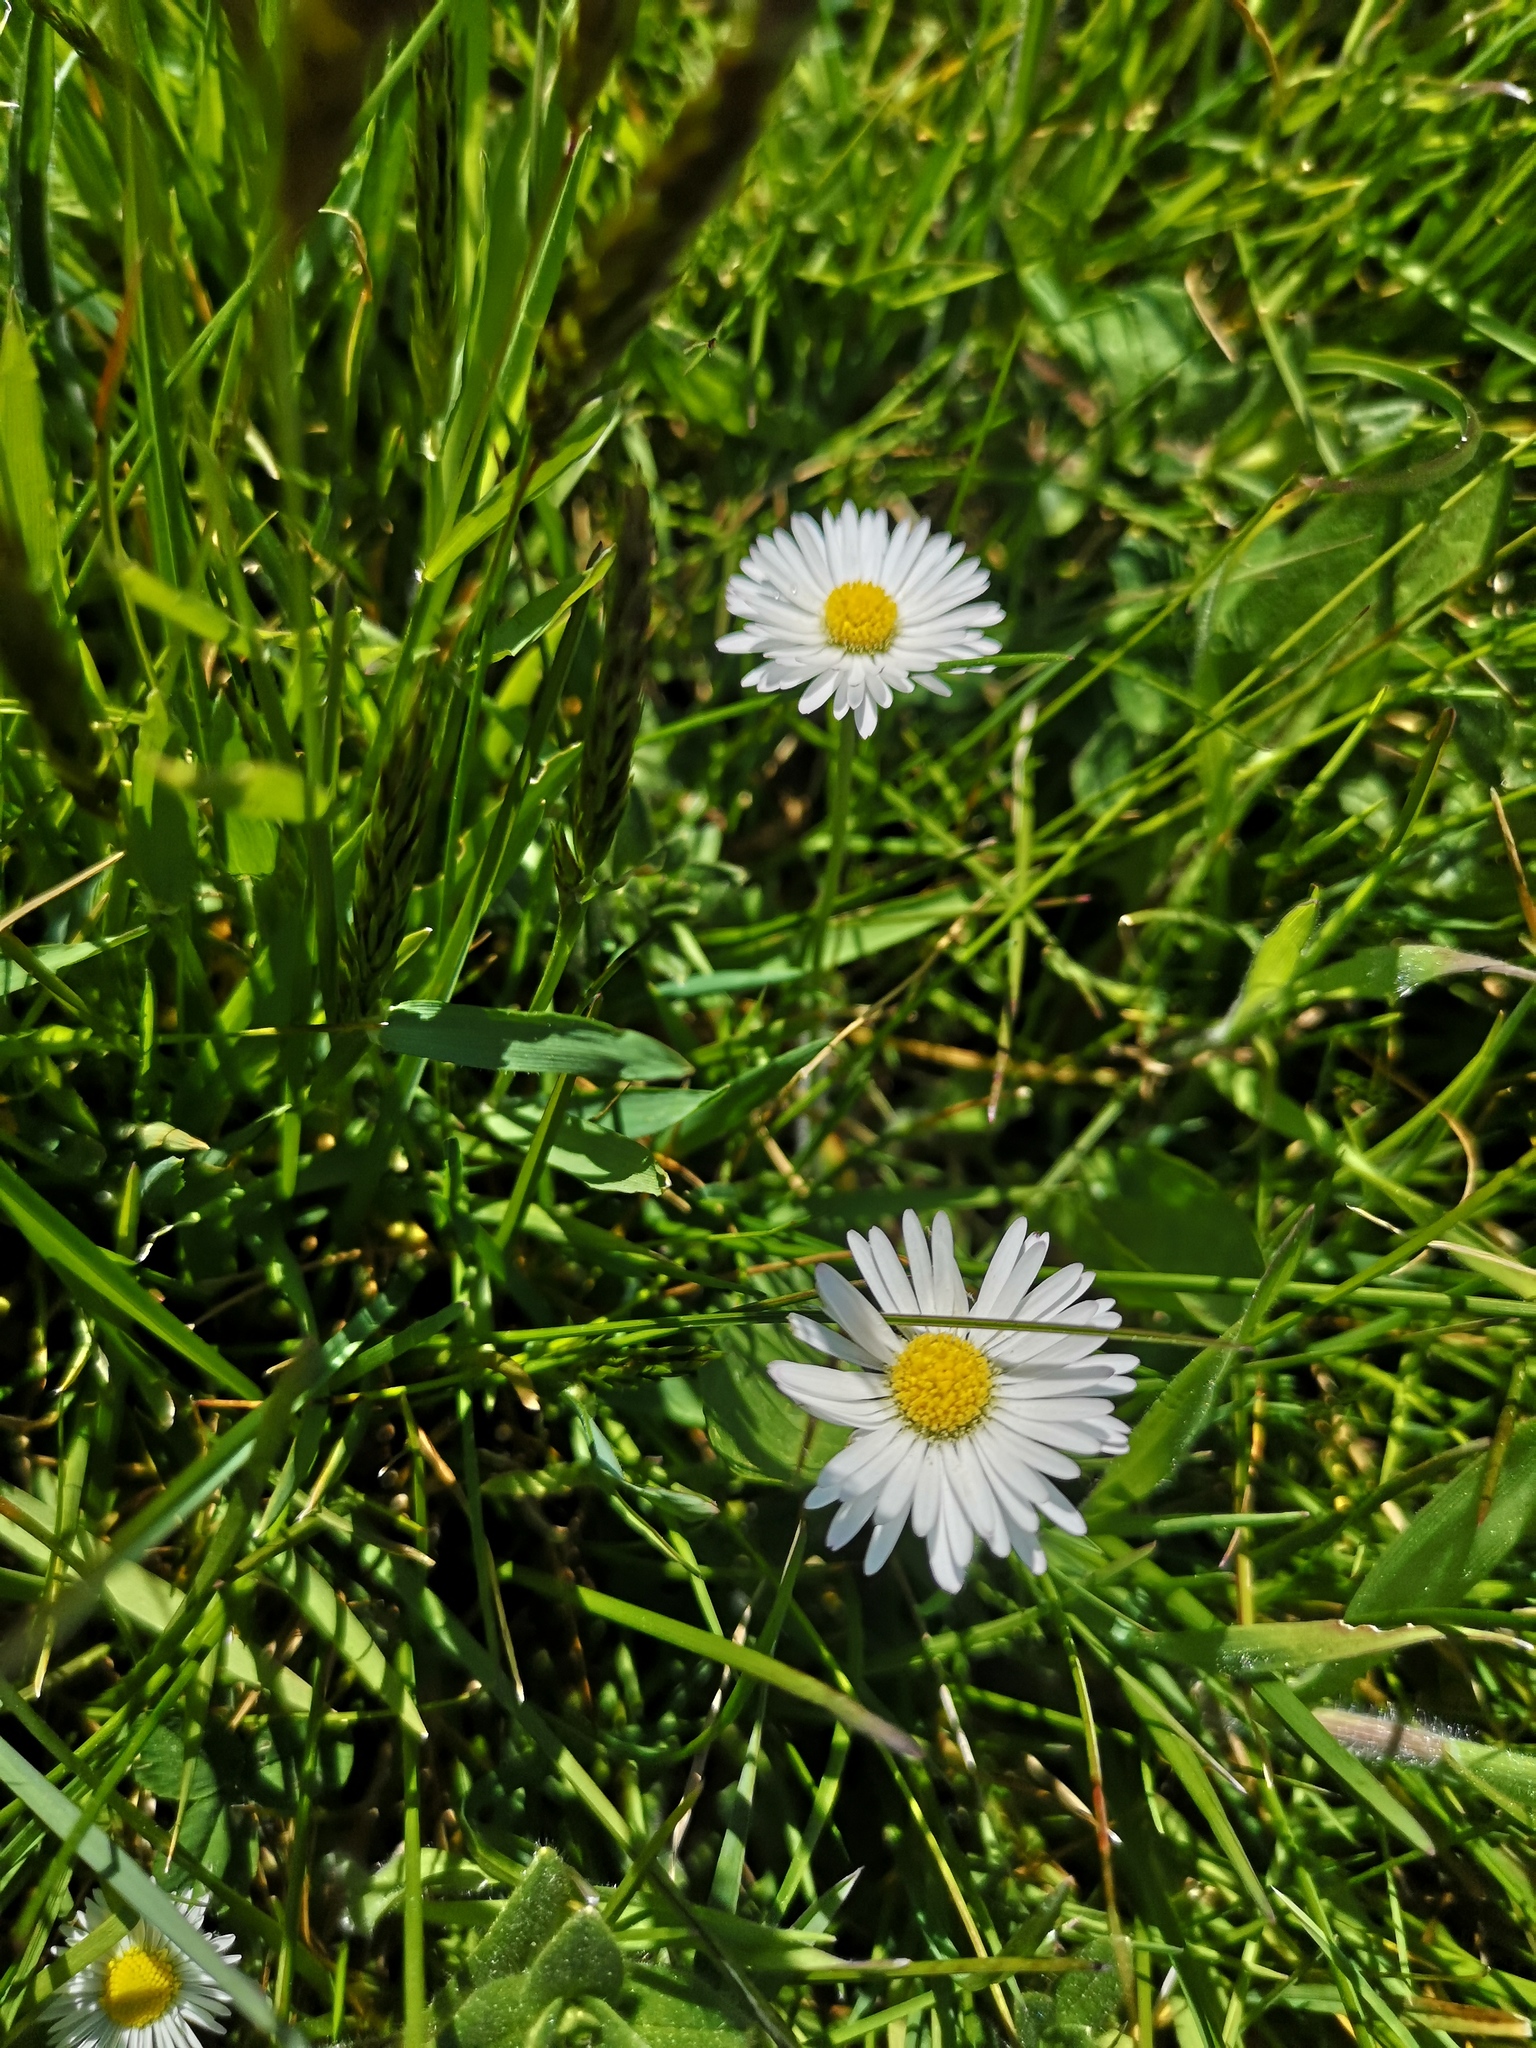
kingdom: Plantae
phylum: Tracheophyta
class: Magnoliopsida
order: Asterales
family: Asteraceae
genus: Bellis
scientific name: Bellis perennis
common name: Lawndaisy
